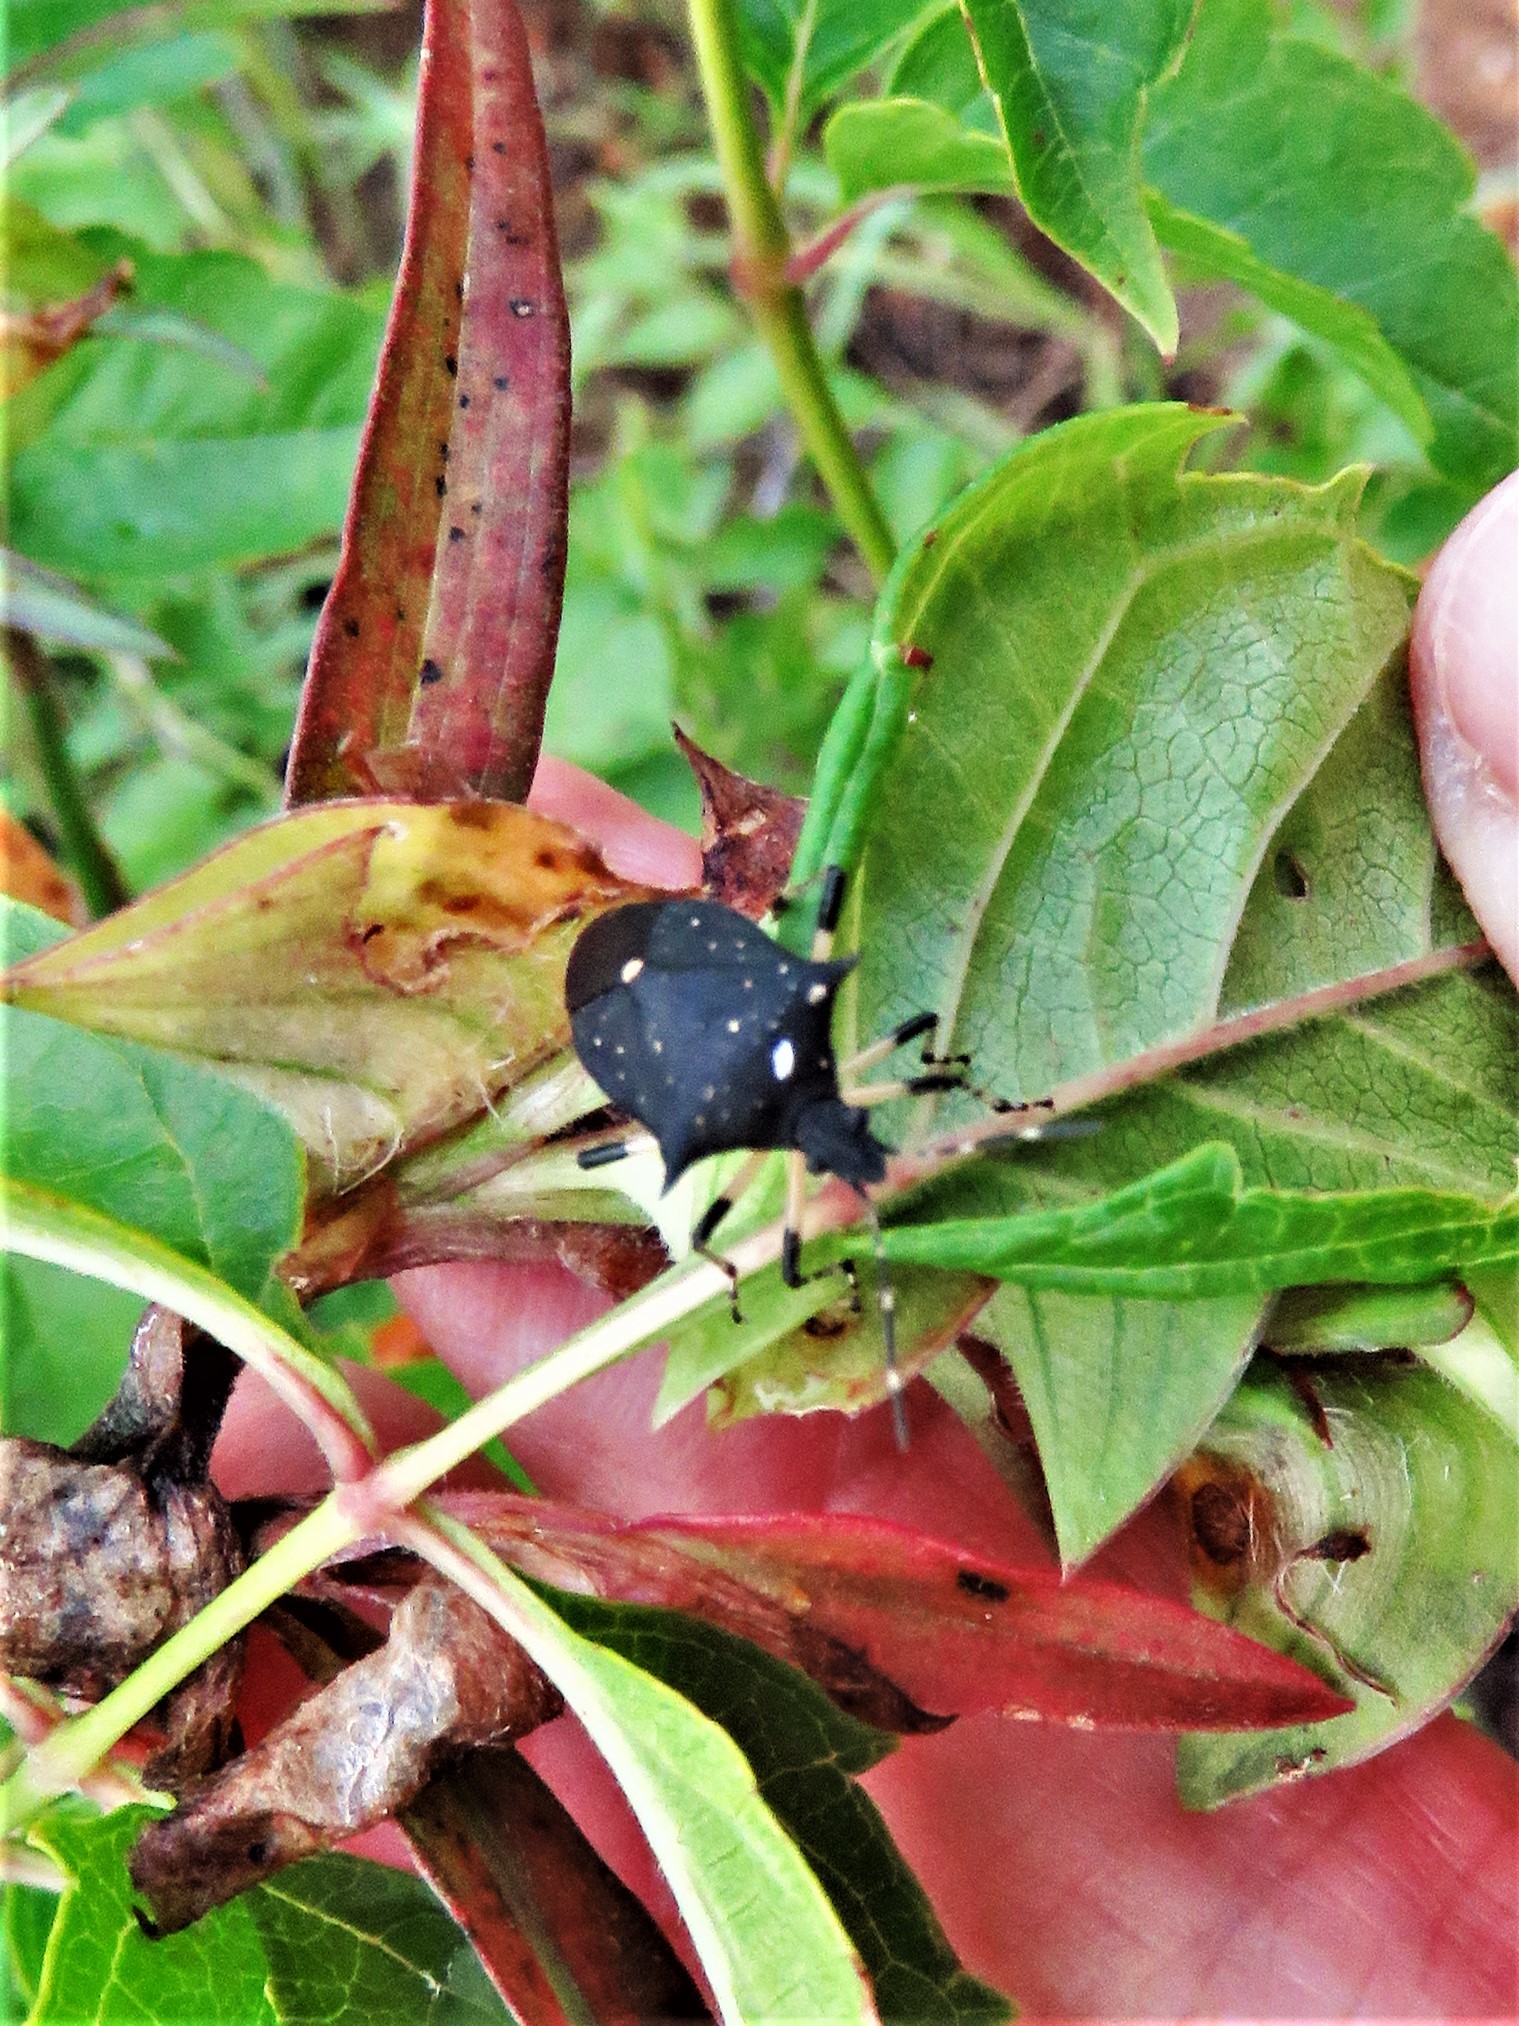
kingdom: Animalia
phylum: Arthropoda
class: Insecta
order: Hemiptera
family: Pentatomidae
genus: Proxys
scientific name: Proxys punctulatus
